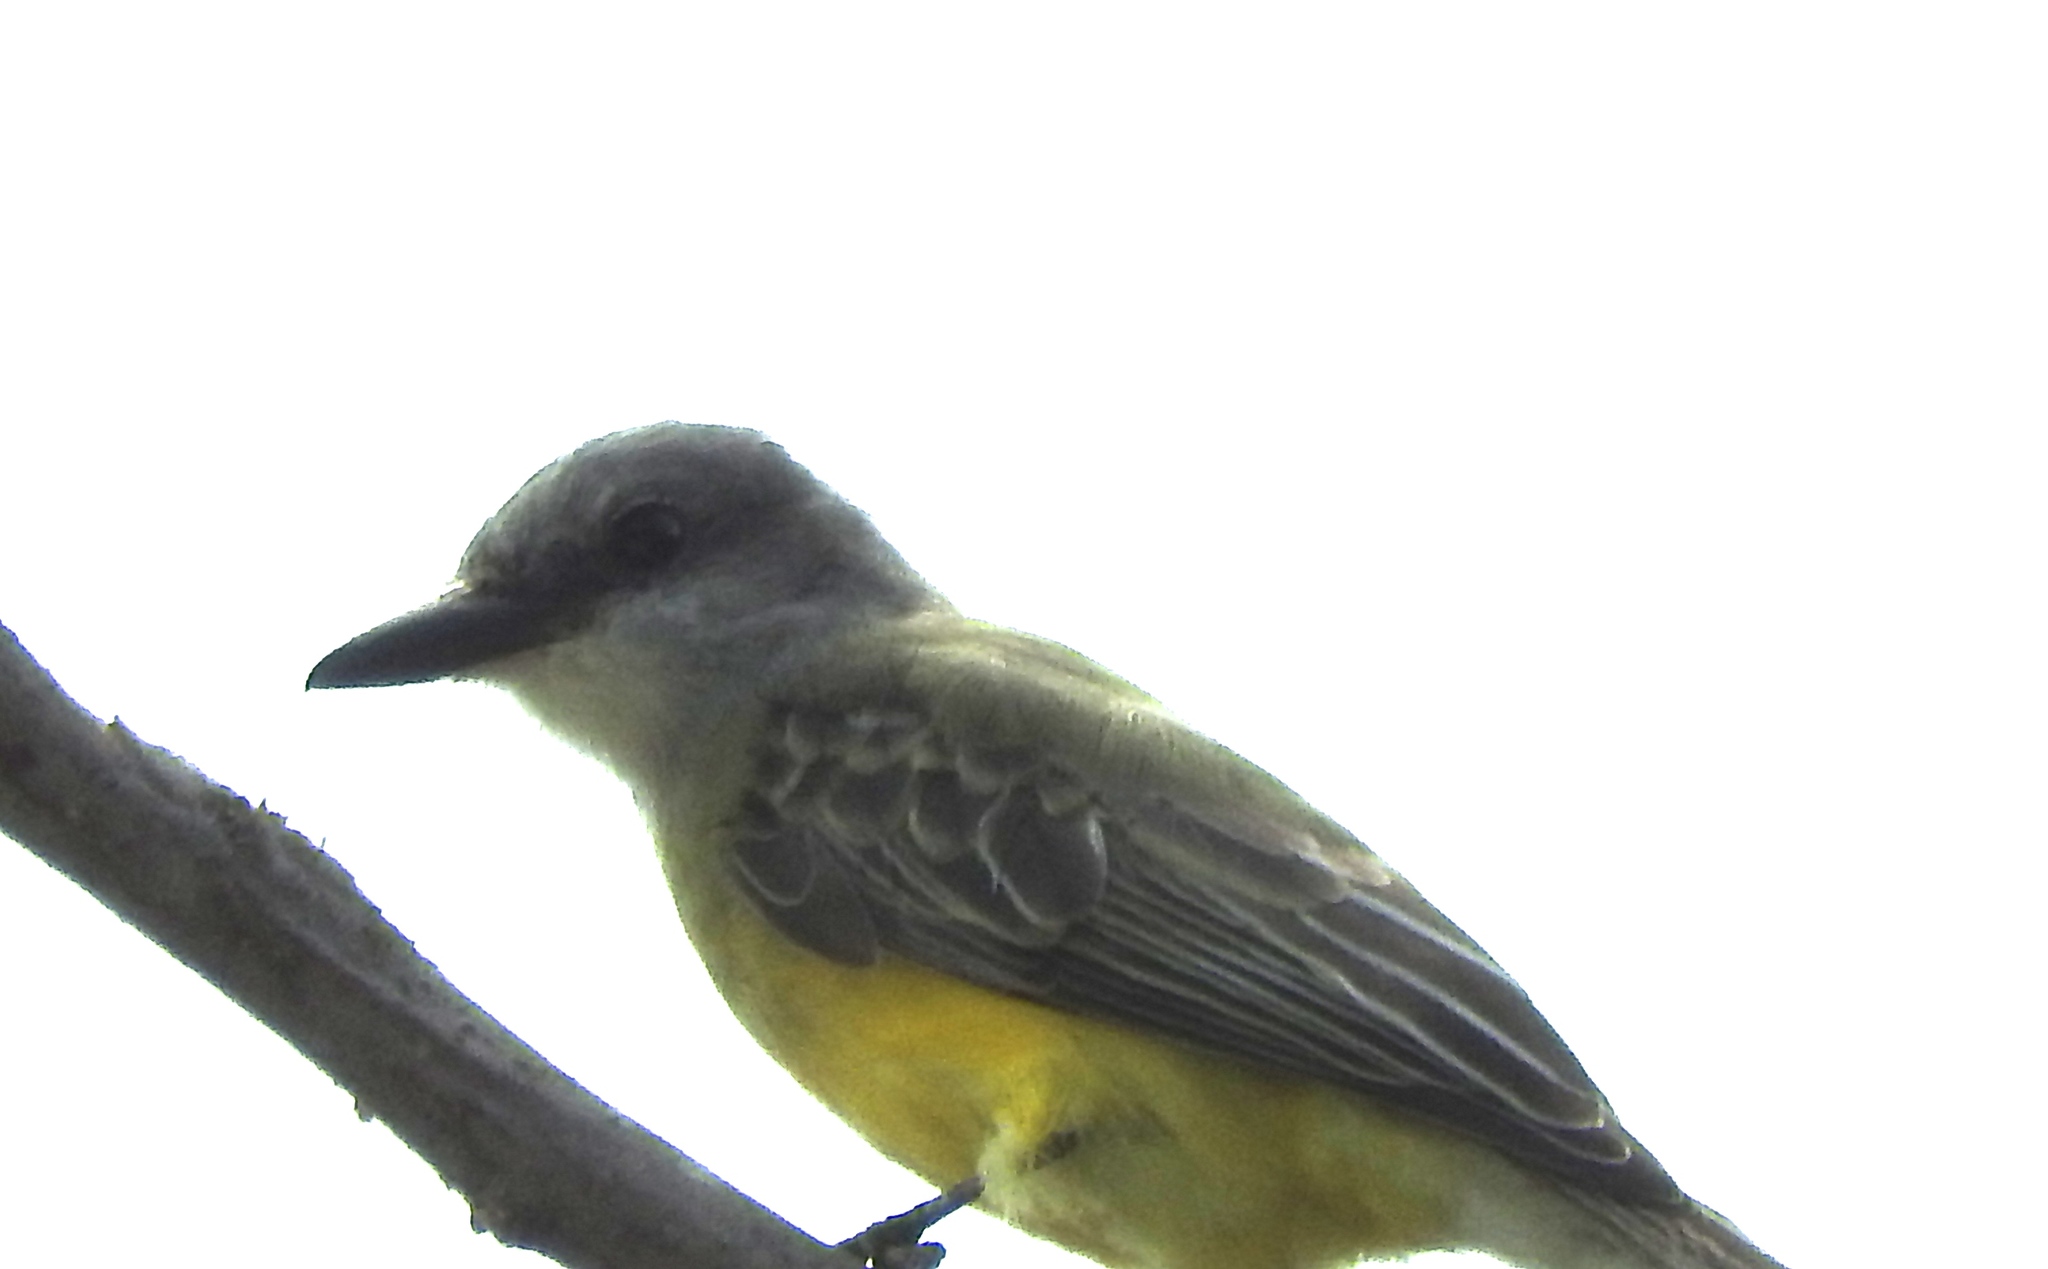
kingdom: Animalia
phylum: Chordata
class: Aves
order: Passeriformes
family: Tyrannidae
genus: Tyrannus
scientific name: Tyrannus melancholicus
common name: Tropical kingbird
